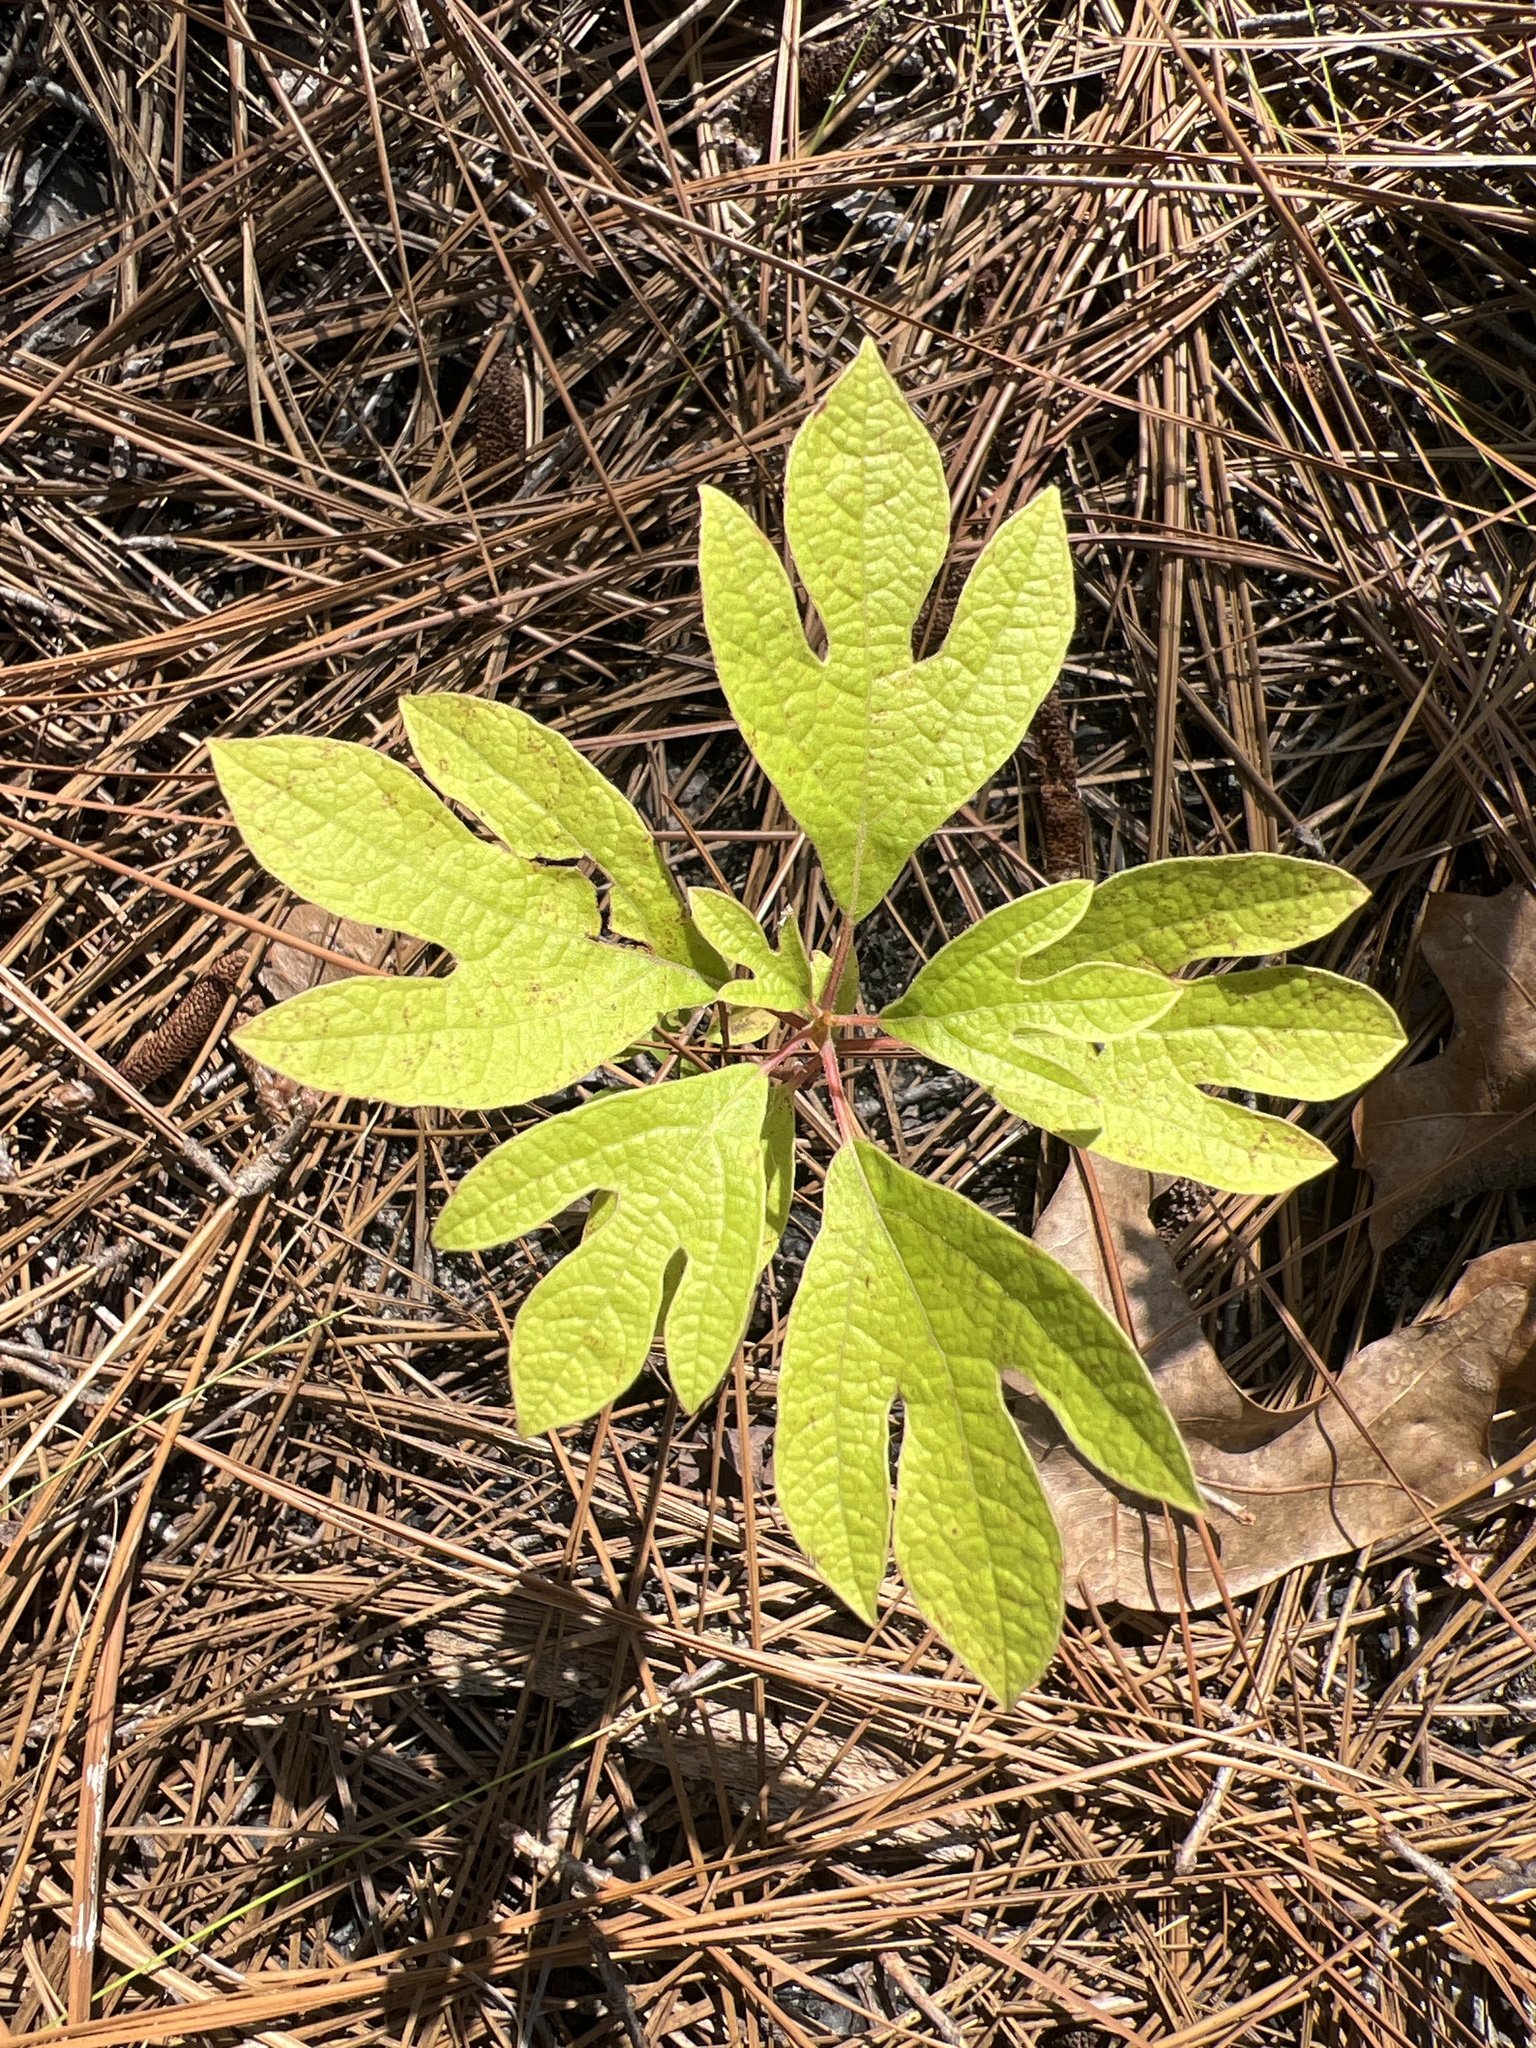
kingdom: Plantae
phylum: Tracheophyta
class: Magnoliopsida
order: Laurales
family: Lauraceae
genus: Sassafras
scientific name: Sassafras albidum
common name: Sassafras
